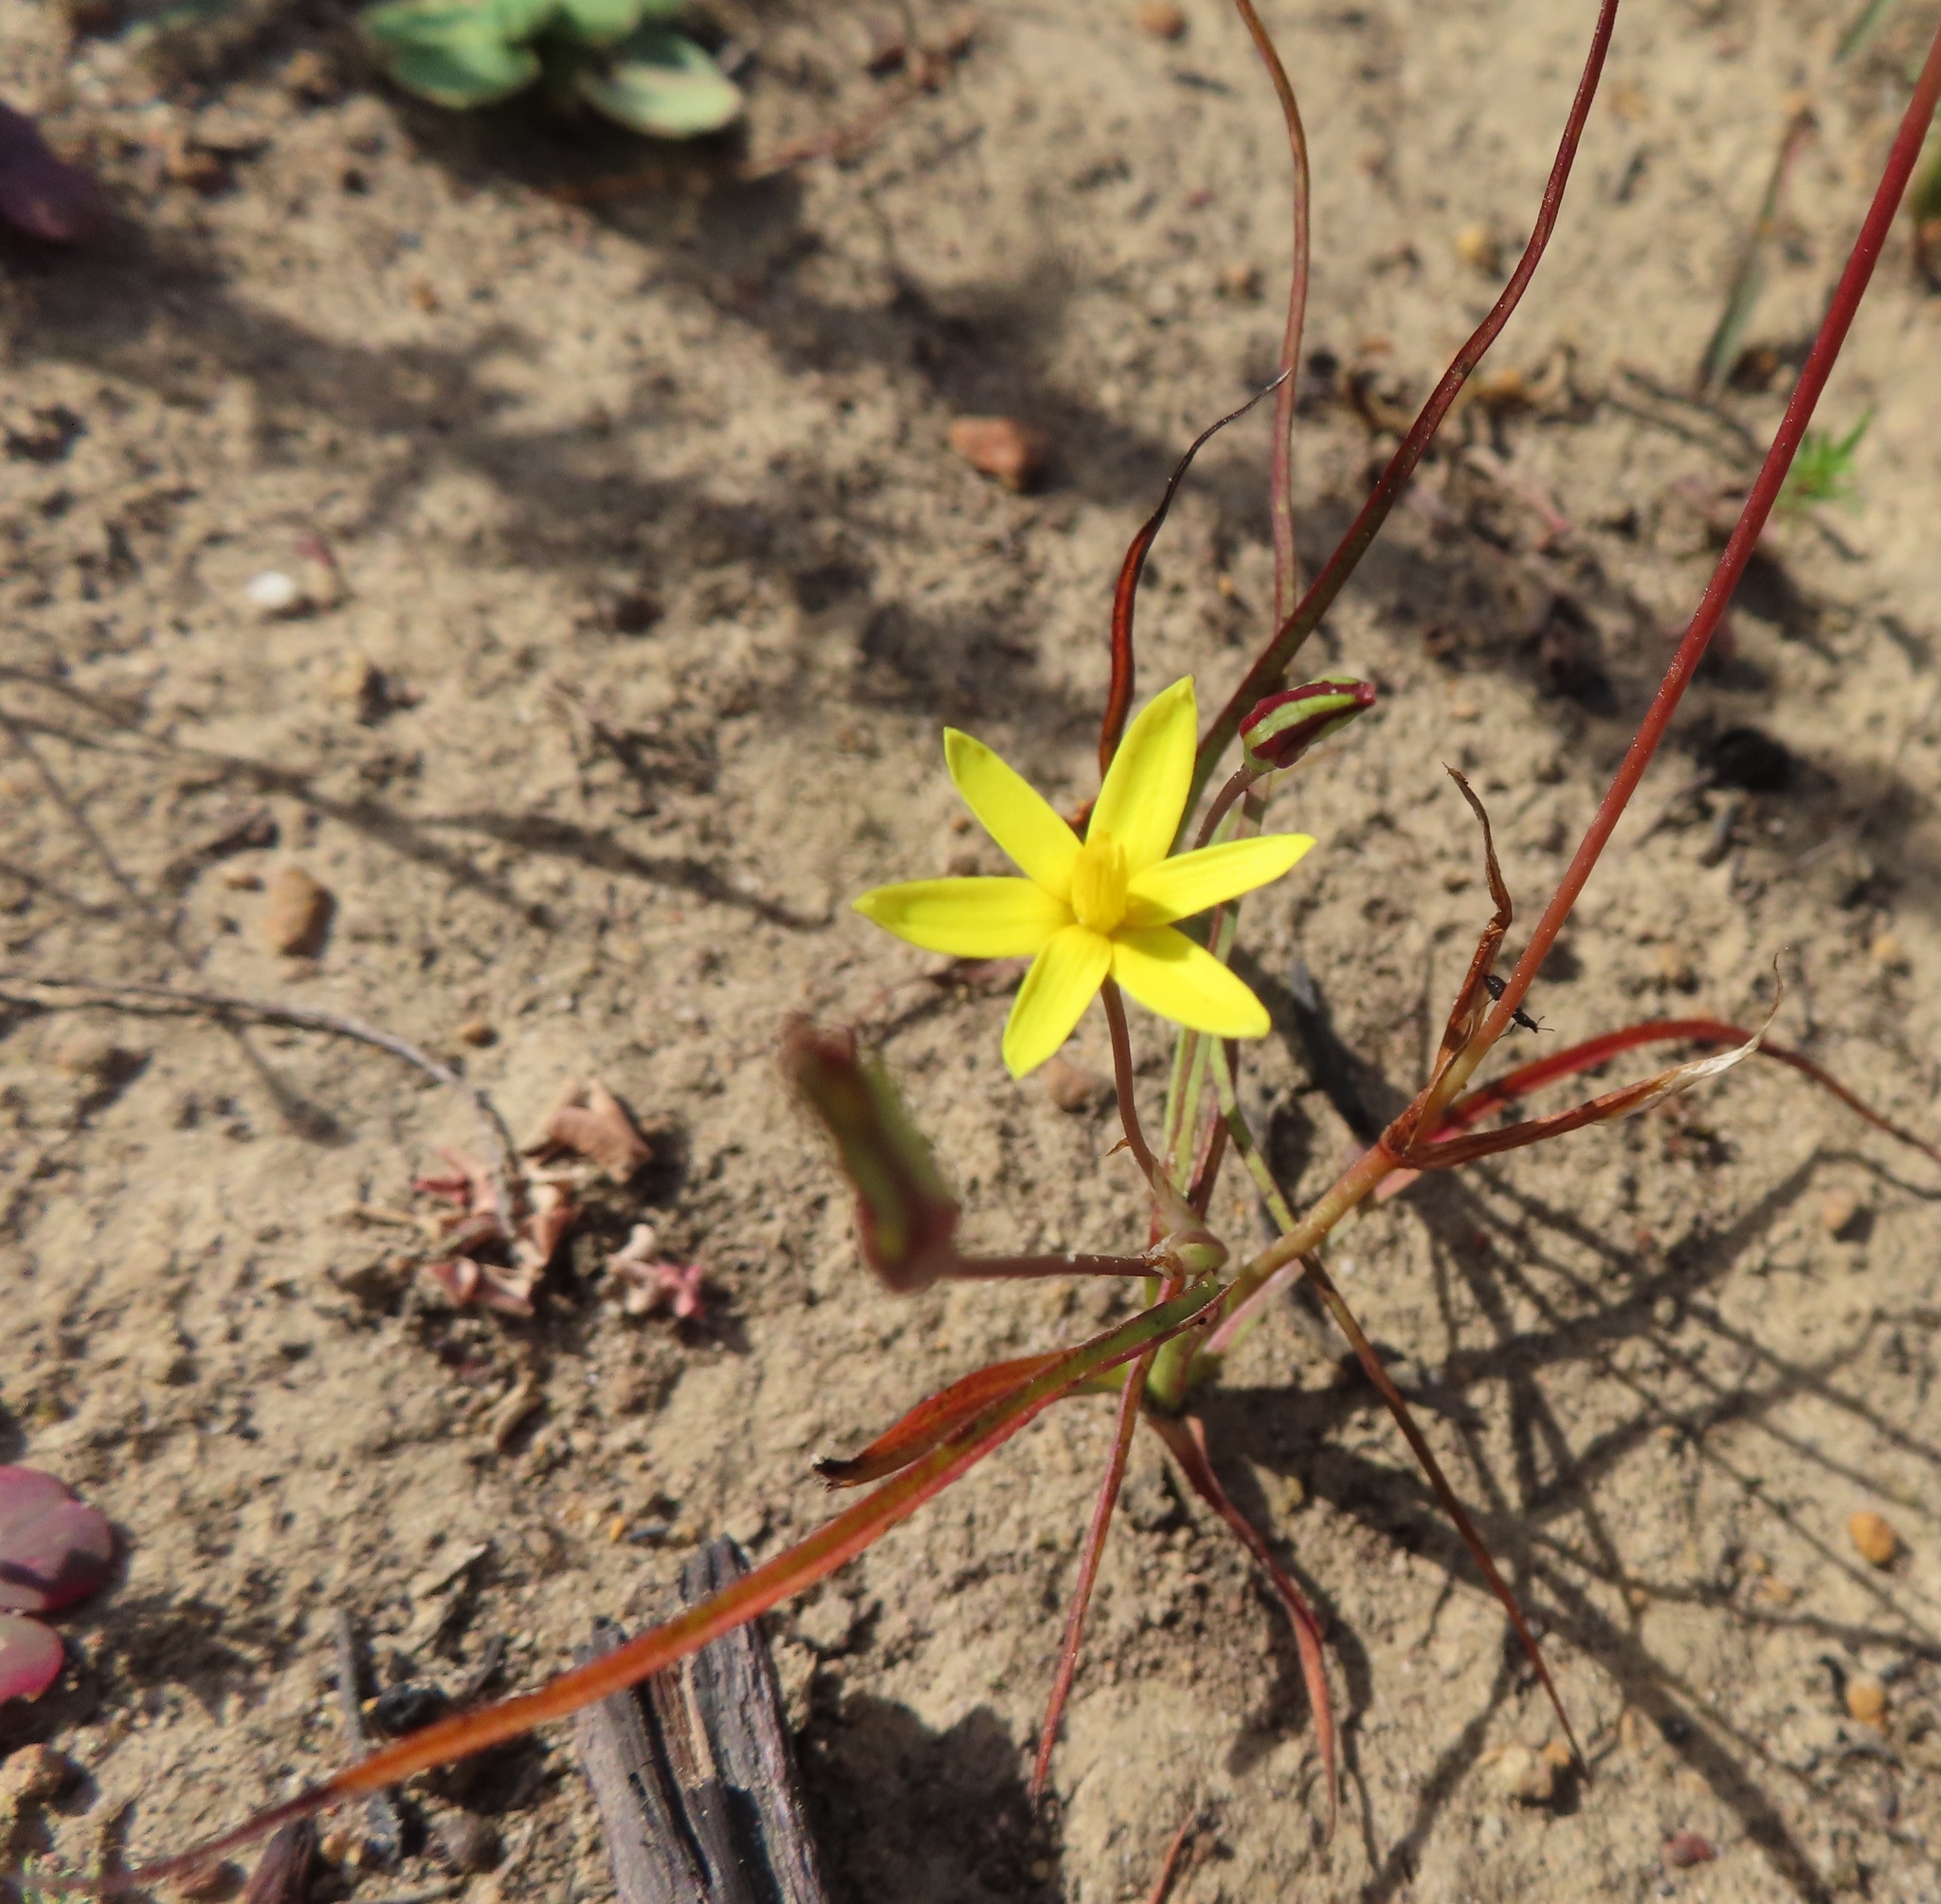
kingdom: Plantae
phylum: Tracheophyta
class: Liliopsida
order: Asparagales
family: Hypoxidaceae
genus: Pauridia
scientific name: Pauridia flaccida
